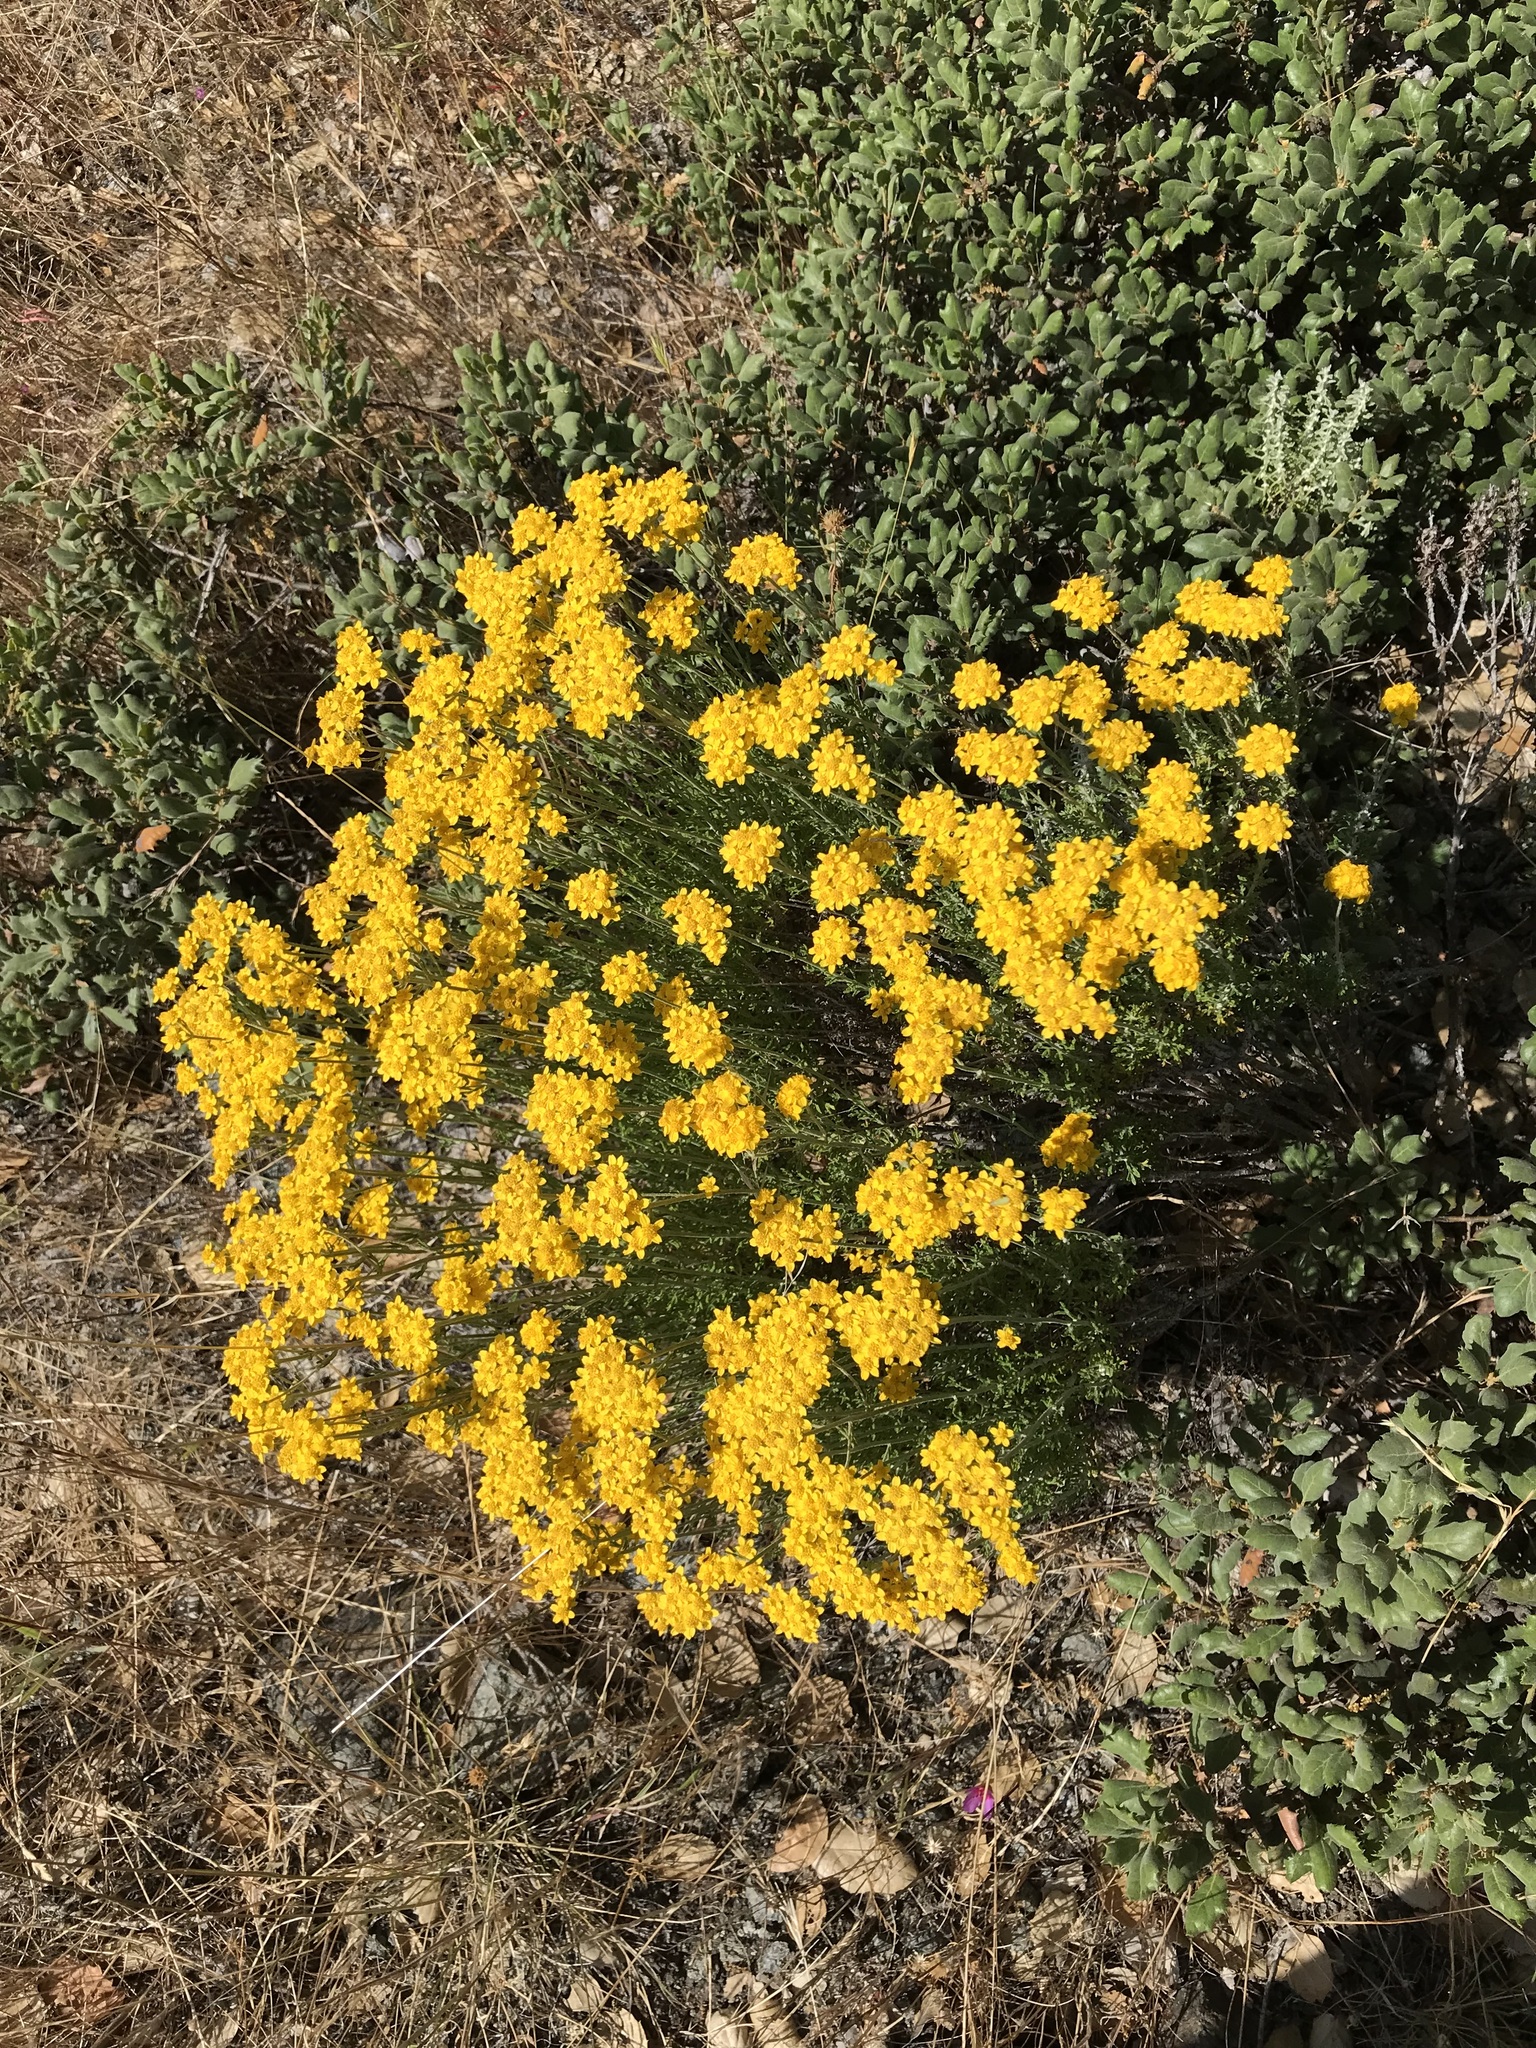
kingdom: Plantae
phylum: Tracheophyta
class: Magnoliopsida
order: Asterales
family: Asteraceae
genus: Eriophyllum
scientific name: Eriophyllum confertiflorum
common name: Golden-yarrow
